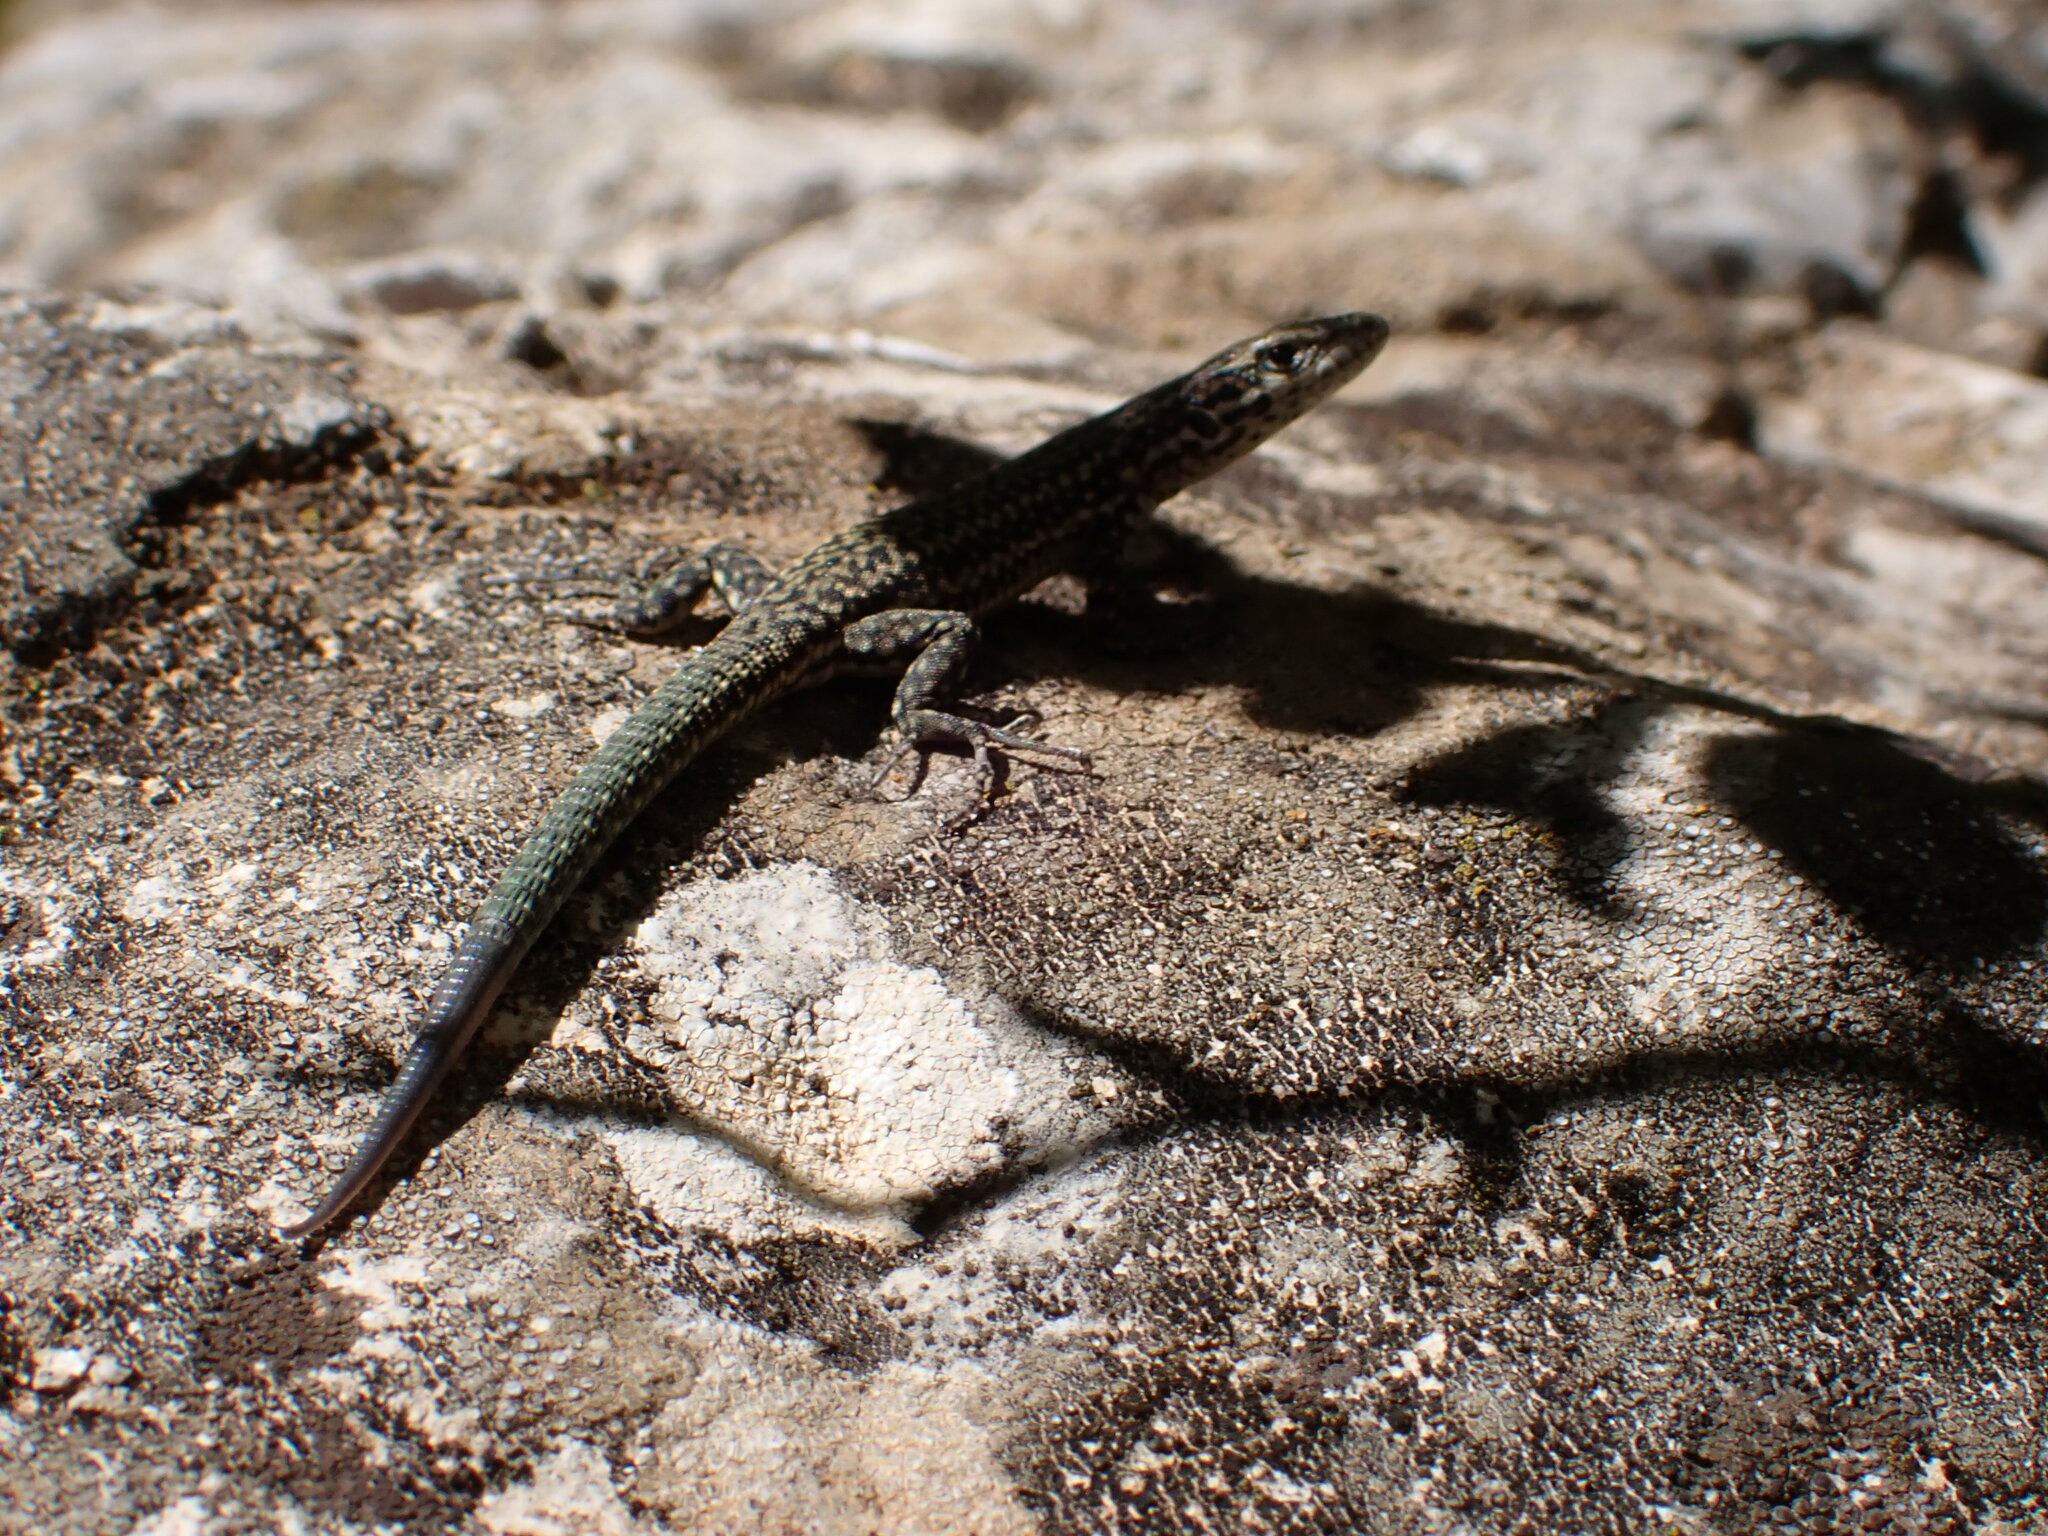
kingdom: Animalia
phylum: Chordata
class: Squamata
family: Lacertidae
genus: Podarcis
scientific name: Podarcis liolepis
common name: Catalonian wall lizard
